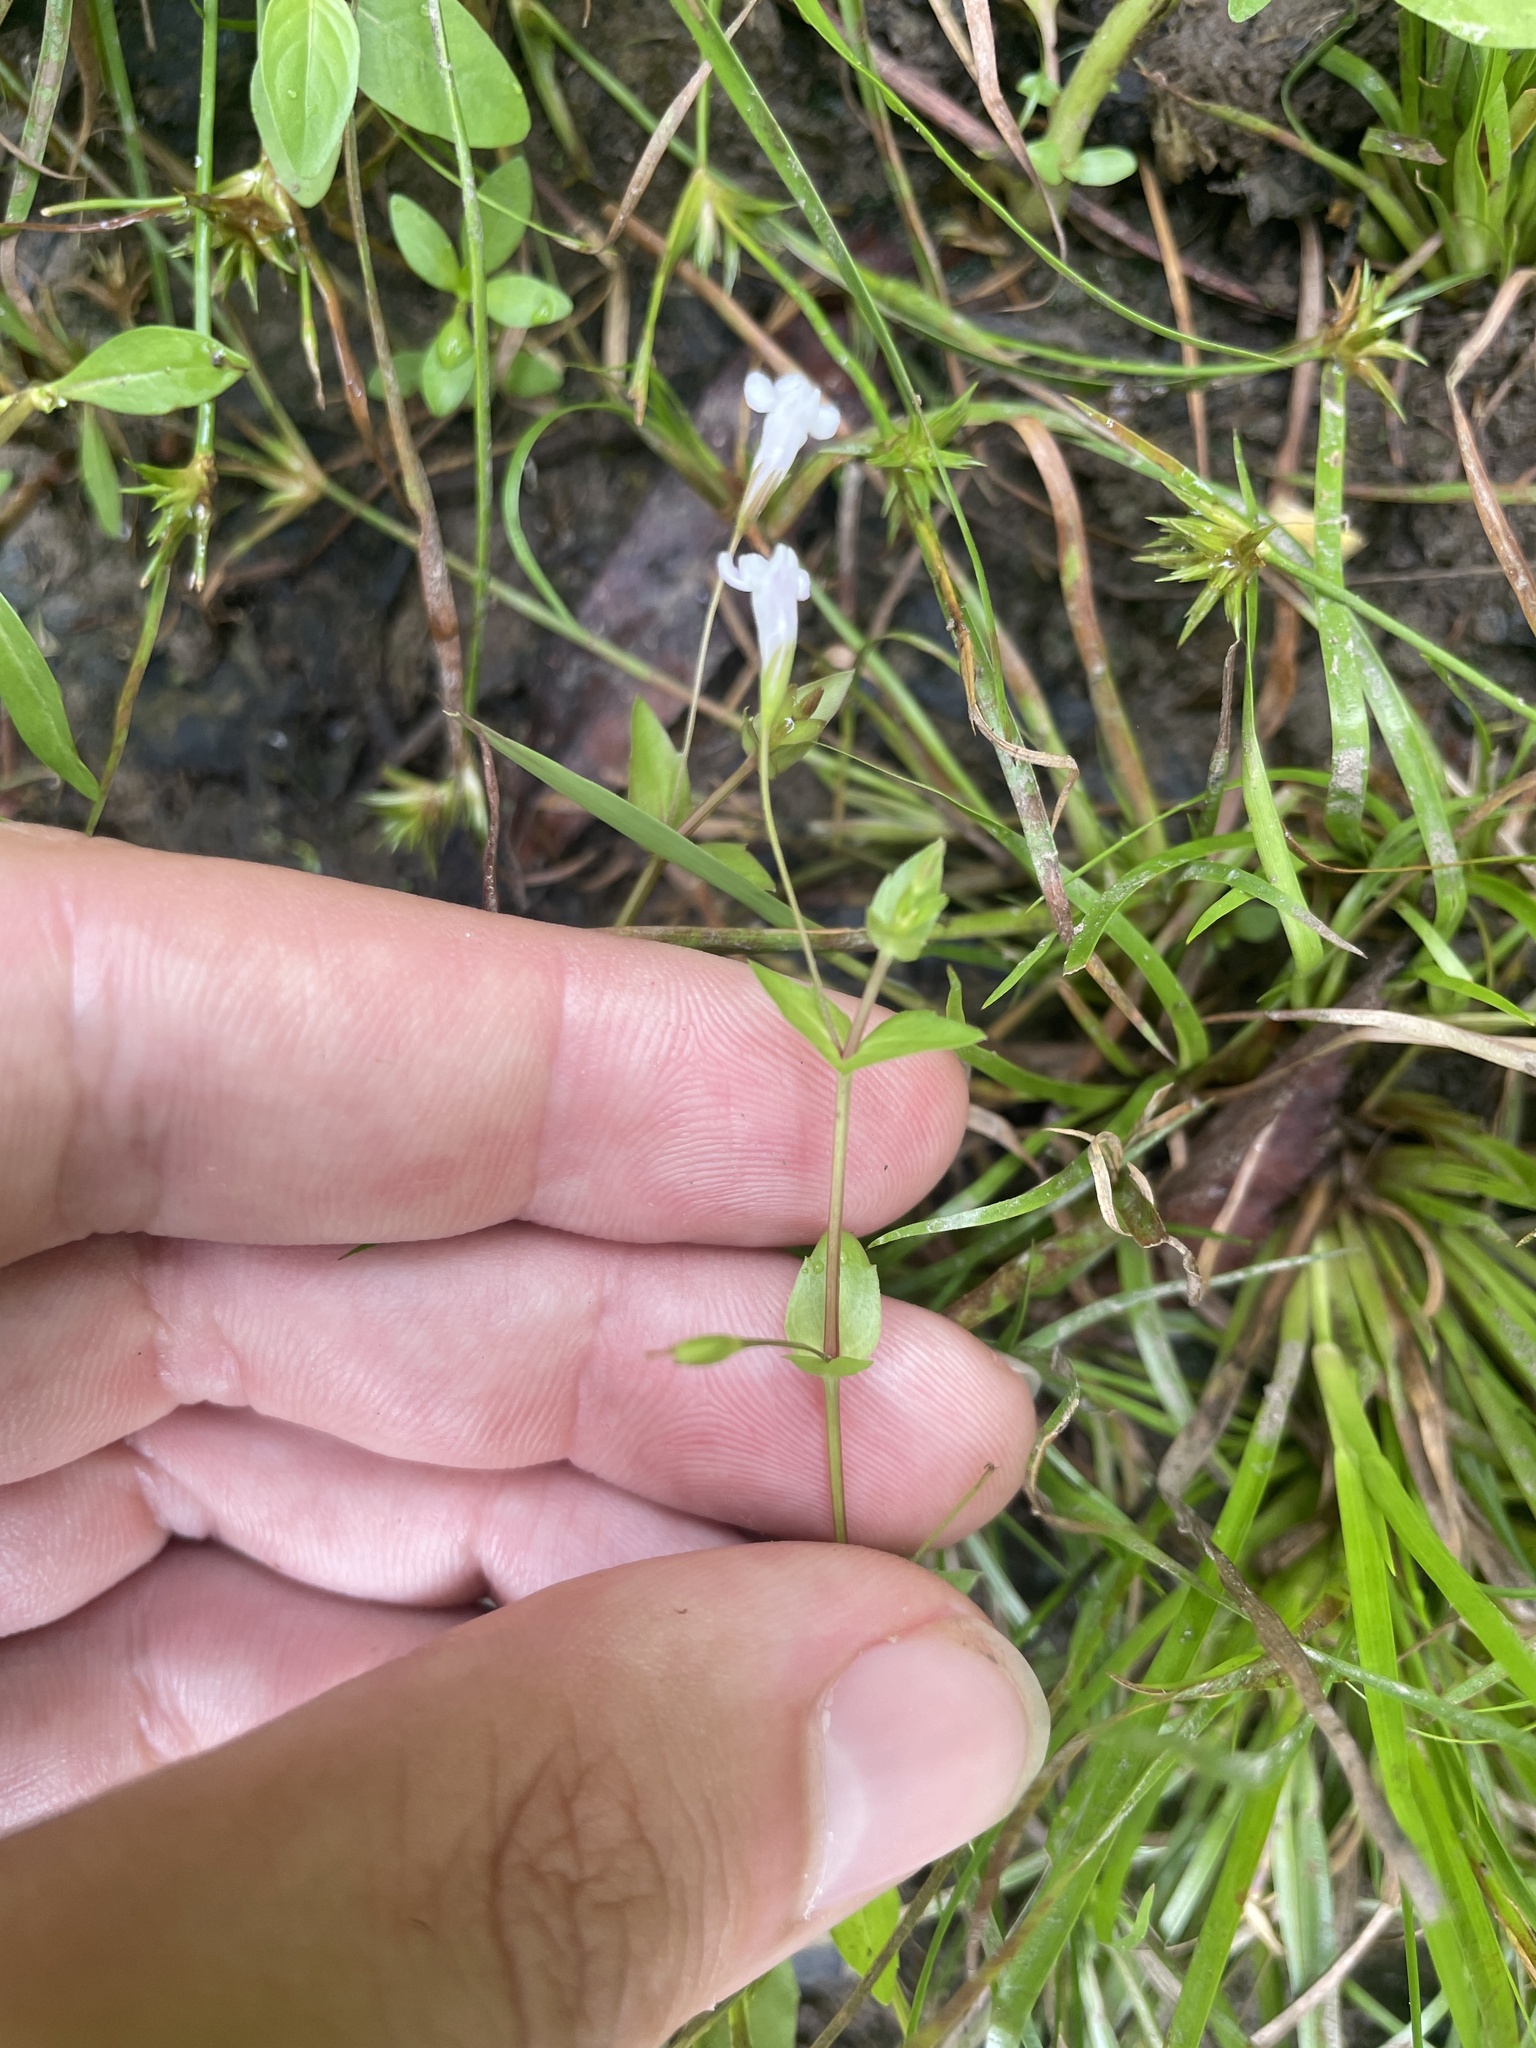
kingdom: Plantae
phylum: Tracheophyta
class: Magnoliopsida
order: Lamiales
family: Linderniaceae
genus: Lindernia
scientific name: Lindernia dubia
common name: Annual false pimpernel
